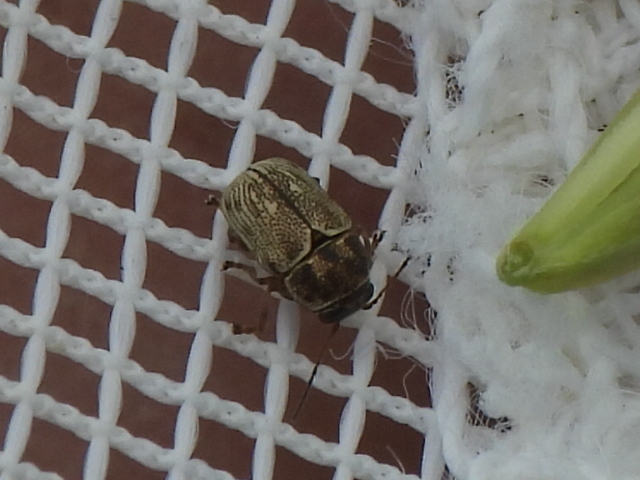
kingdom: Animalia
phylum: Arthropoda
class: Insecta
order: Coleoptera
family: Chrysomelidae
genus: Pachybrachis
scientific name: Pachybrachis brevicollis
